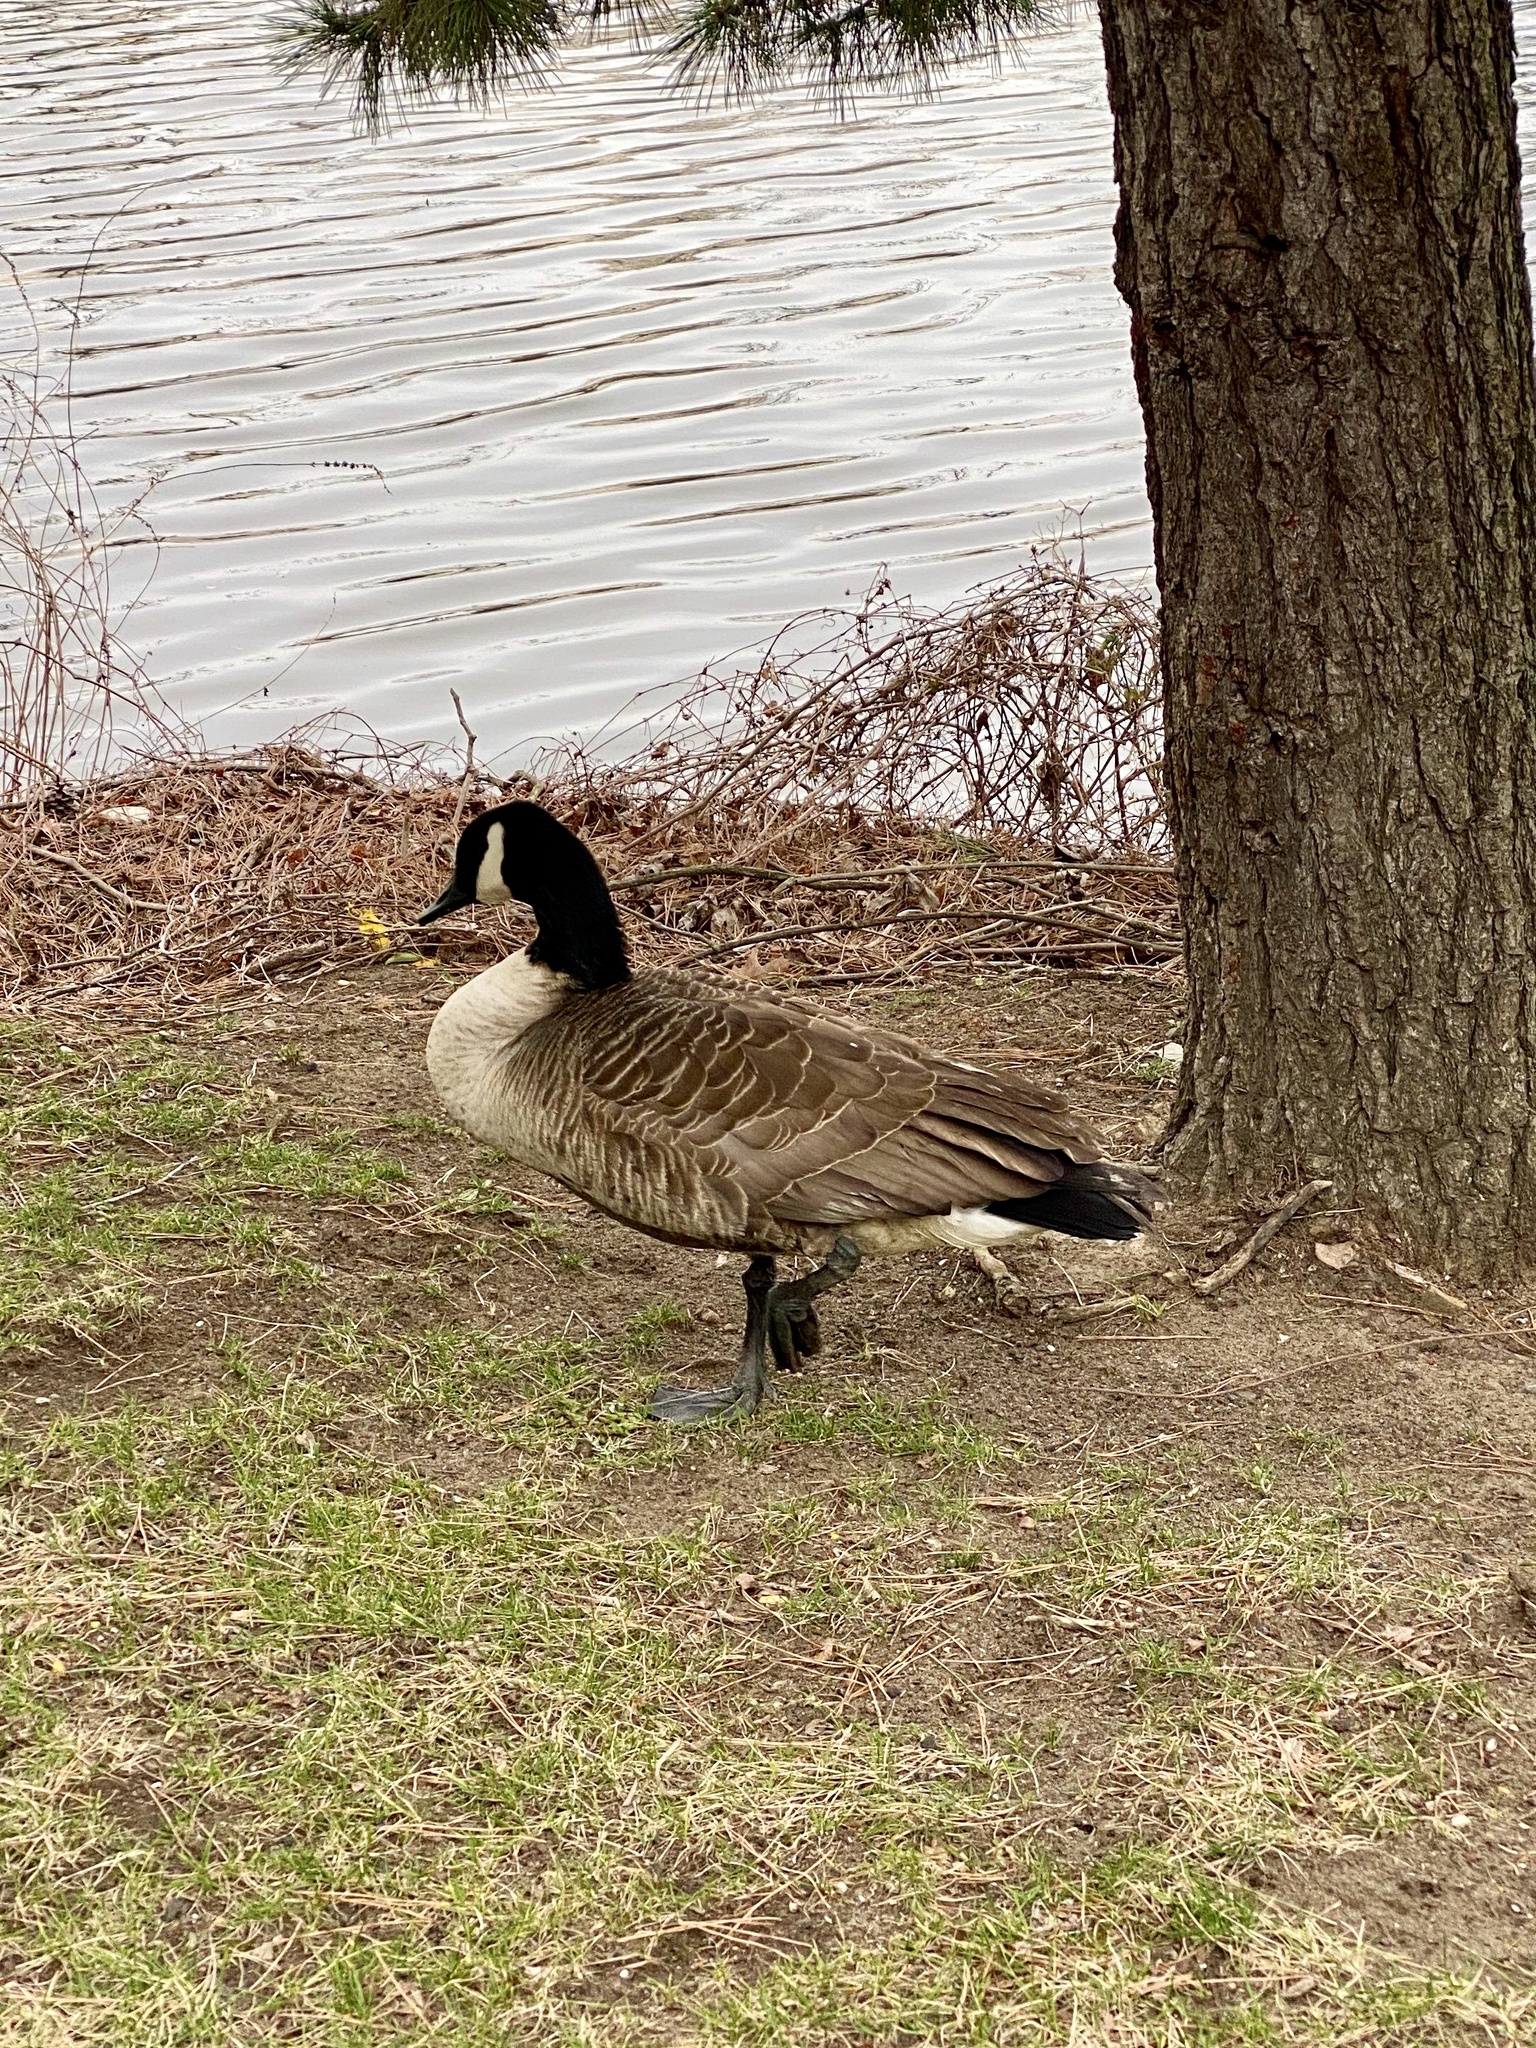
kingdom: Animalia
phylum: Chordata
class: Aves
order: Anseriformes
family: Anatidae
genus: Branta
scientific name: Branta canadensis
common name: Canada goose
